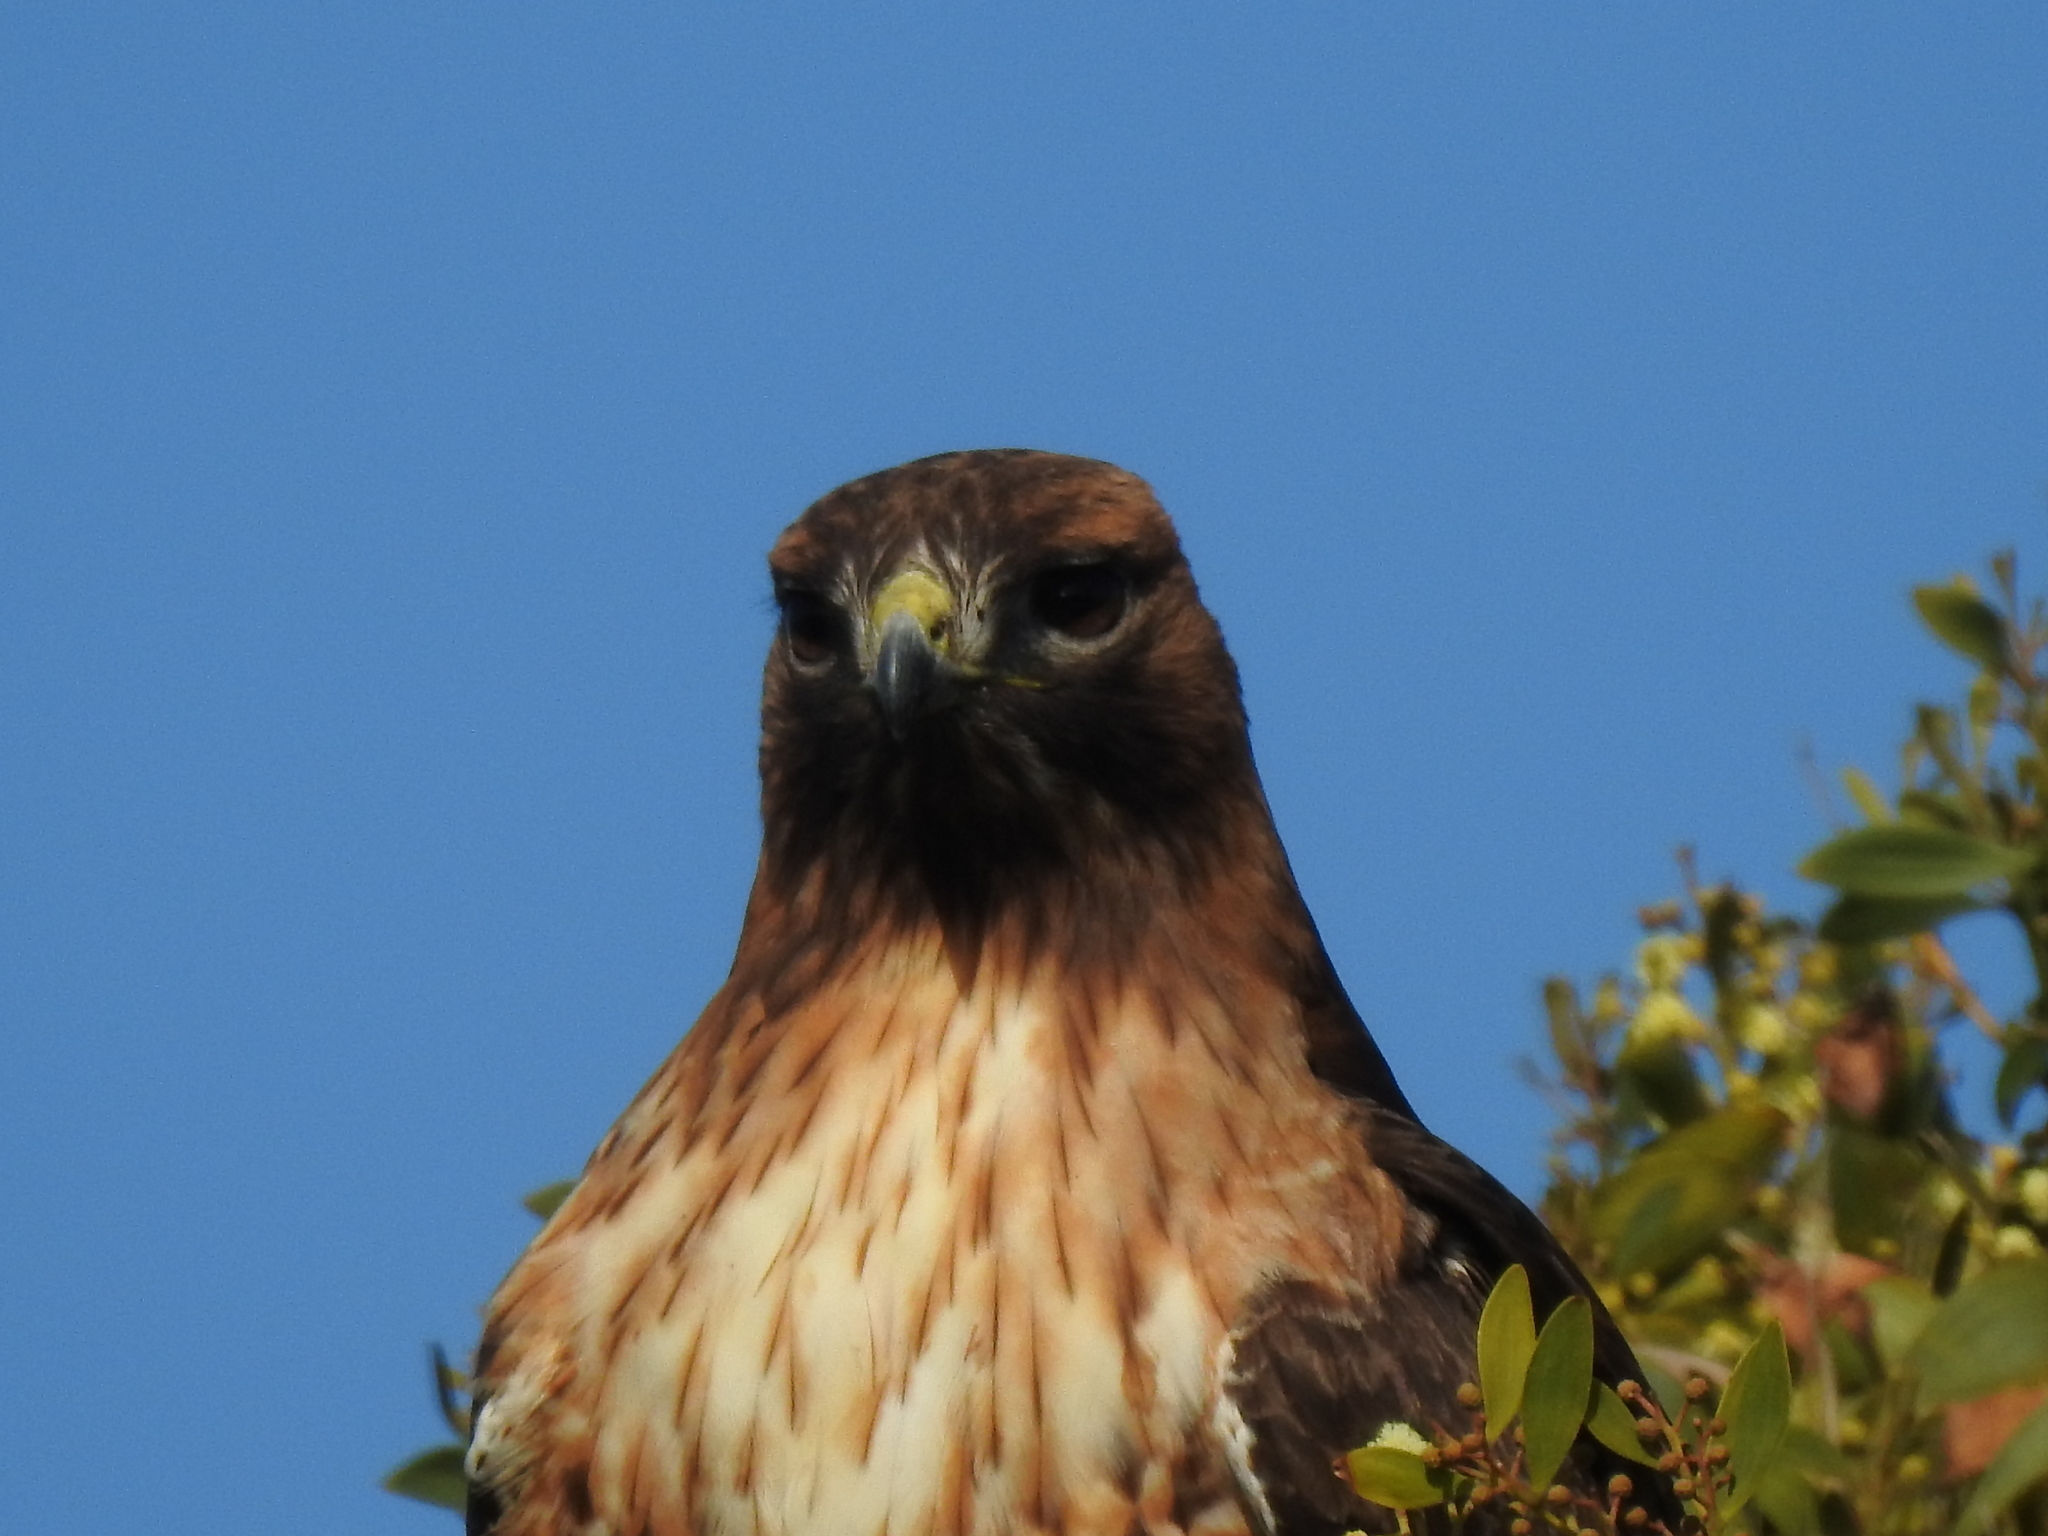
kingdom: Animalia
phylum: Chordata
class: Aves
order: Accipitriformes
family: Accipitridae
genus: Buteo
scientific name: Buteo jamaicensis
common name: Red-tailed hawk
